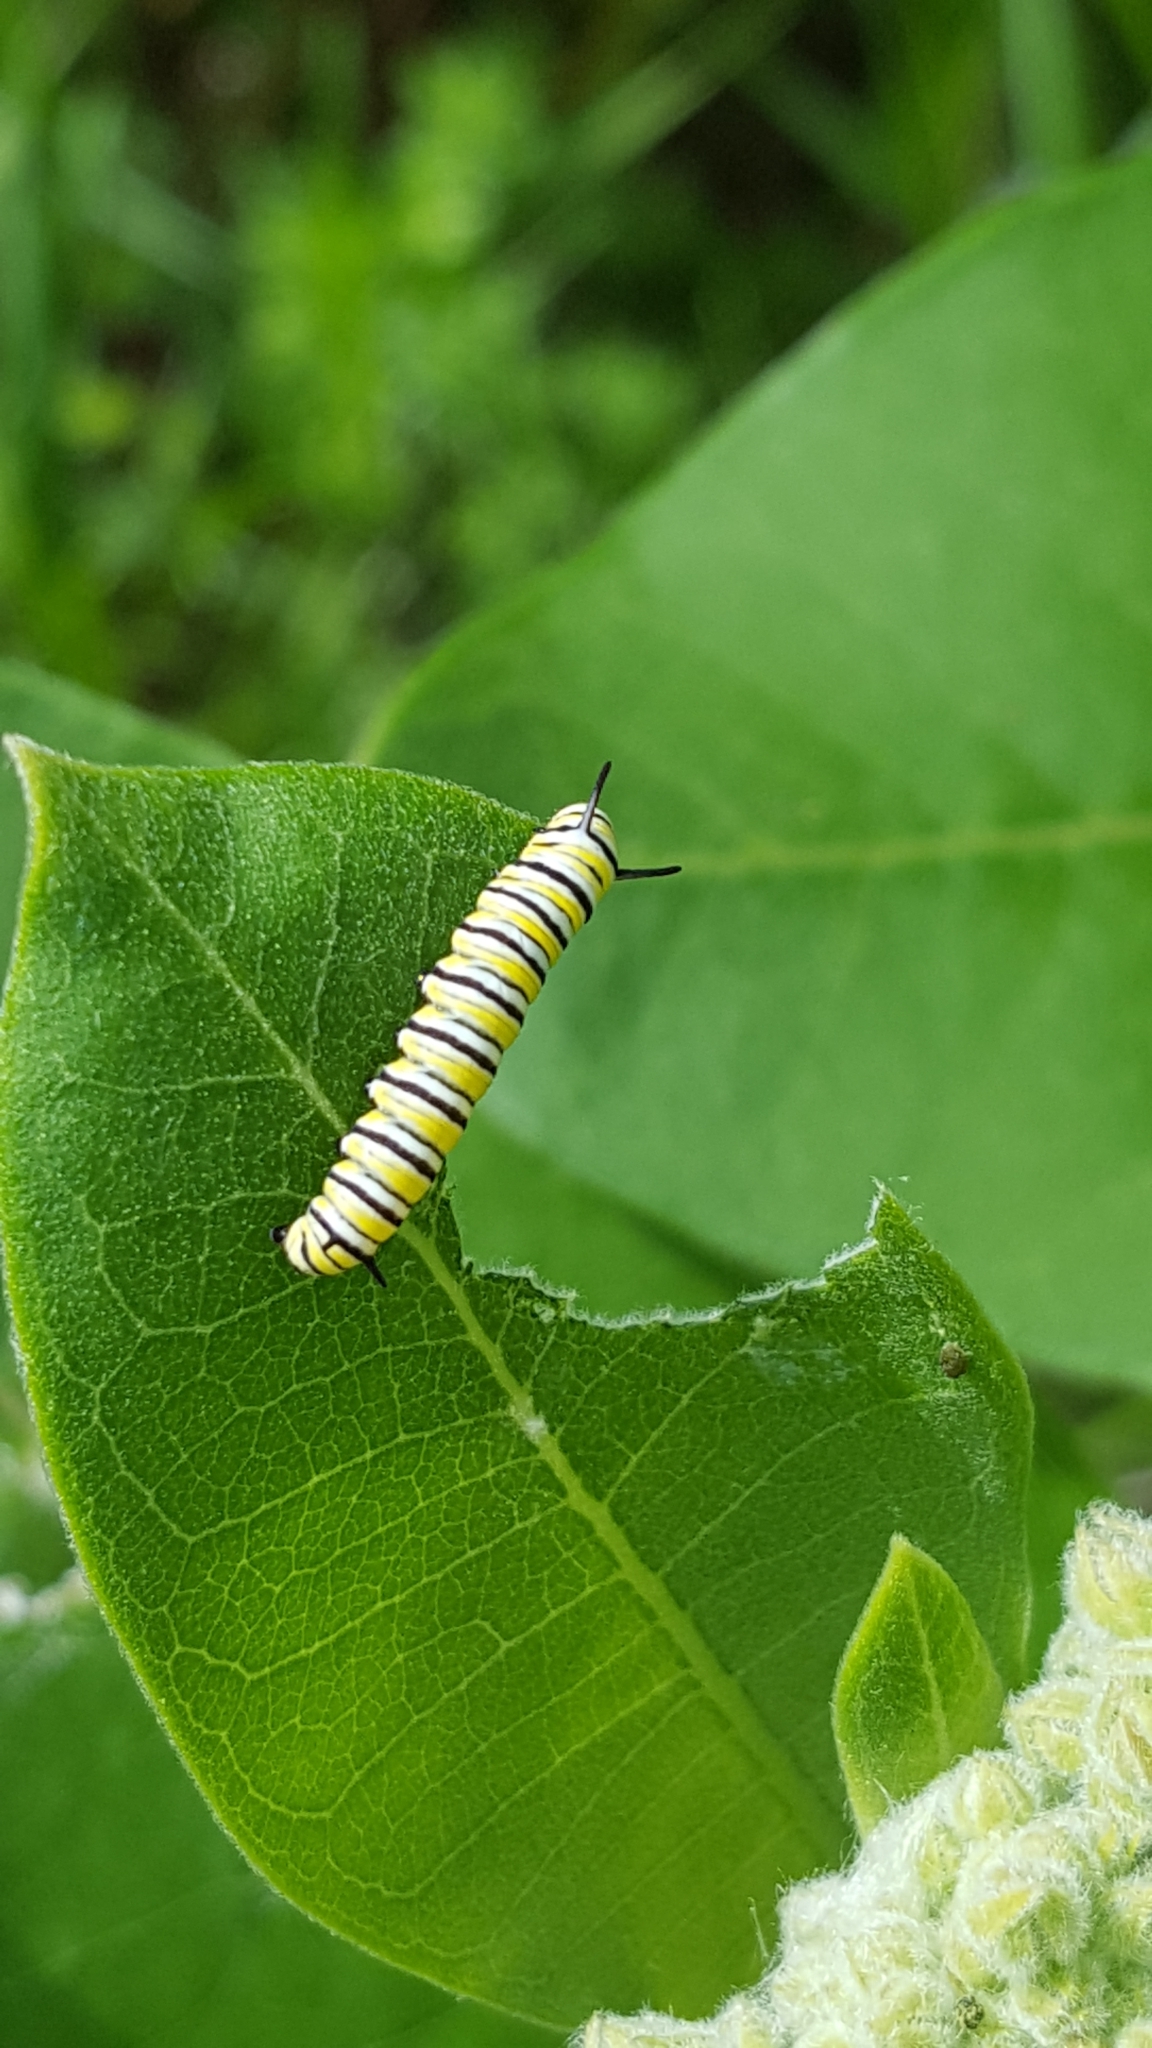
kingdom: Animalia
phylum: Arthropoda
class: Insecta
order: Lepidoptera
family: Nymphalidae
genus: Danaus
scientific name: Danaus plexippus
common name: Monarch
